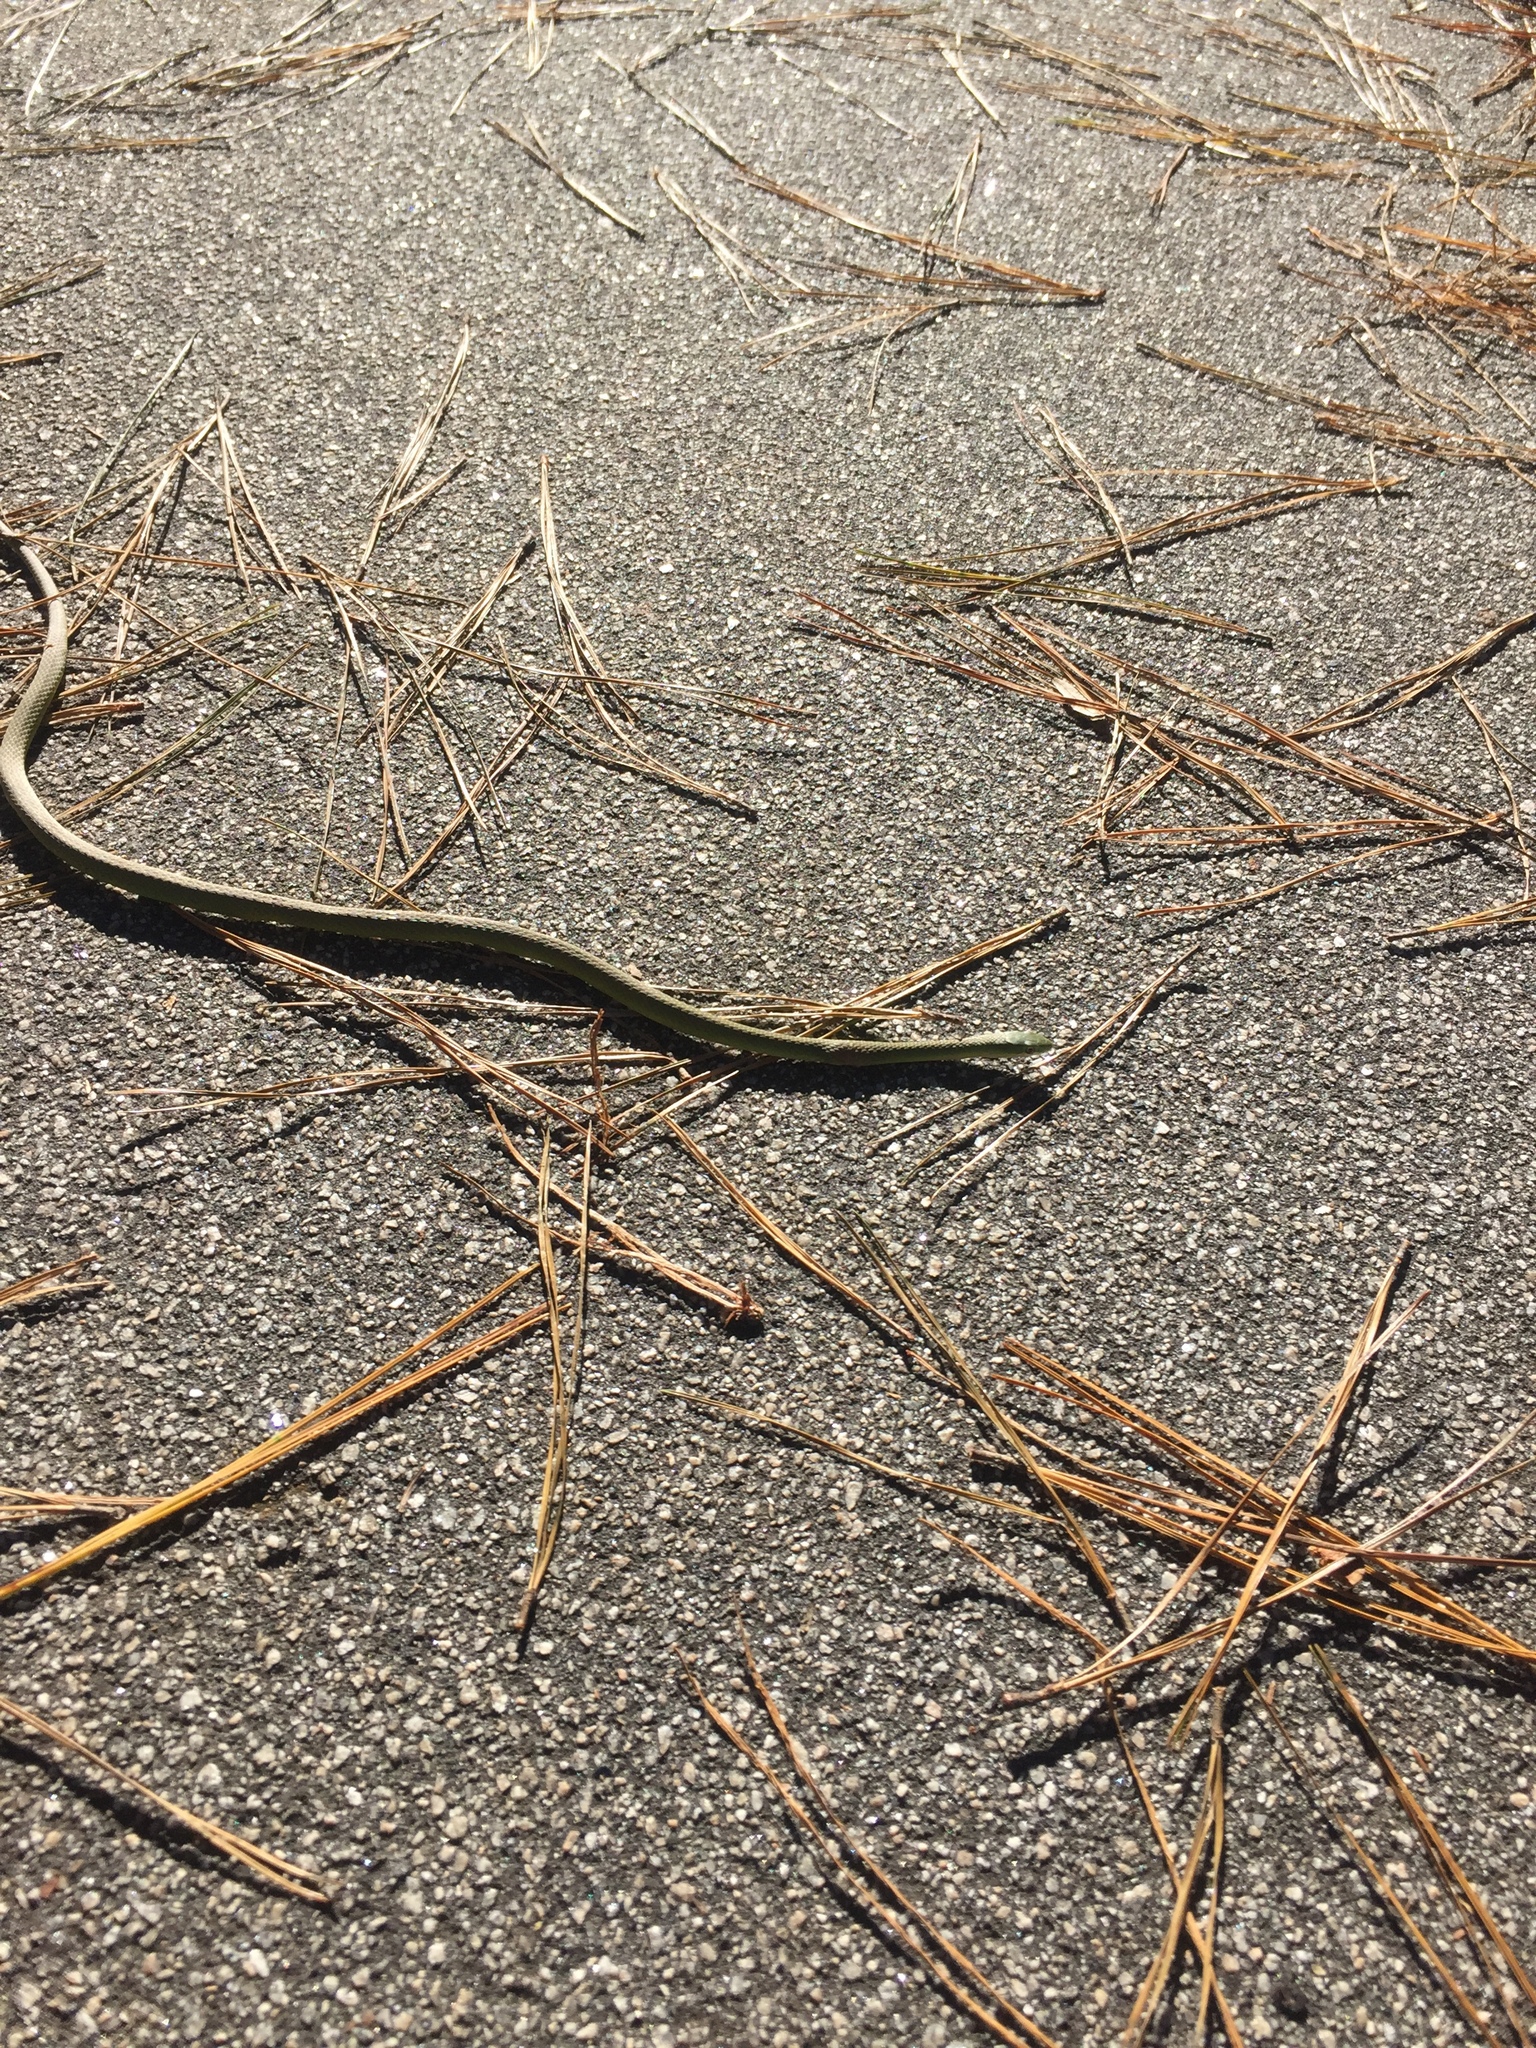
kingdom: Animalia
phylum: Chordata
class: Squamata
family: Colubridae
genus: Opheodrys
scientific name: Opheodrys aestivus
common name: Rough greensnake
